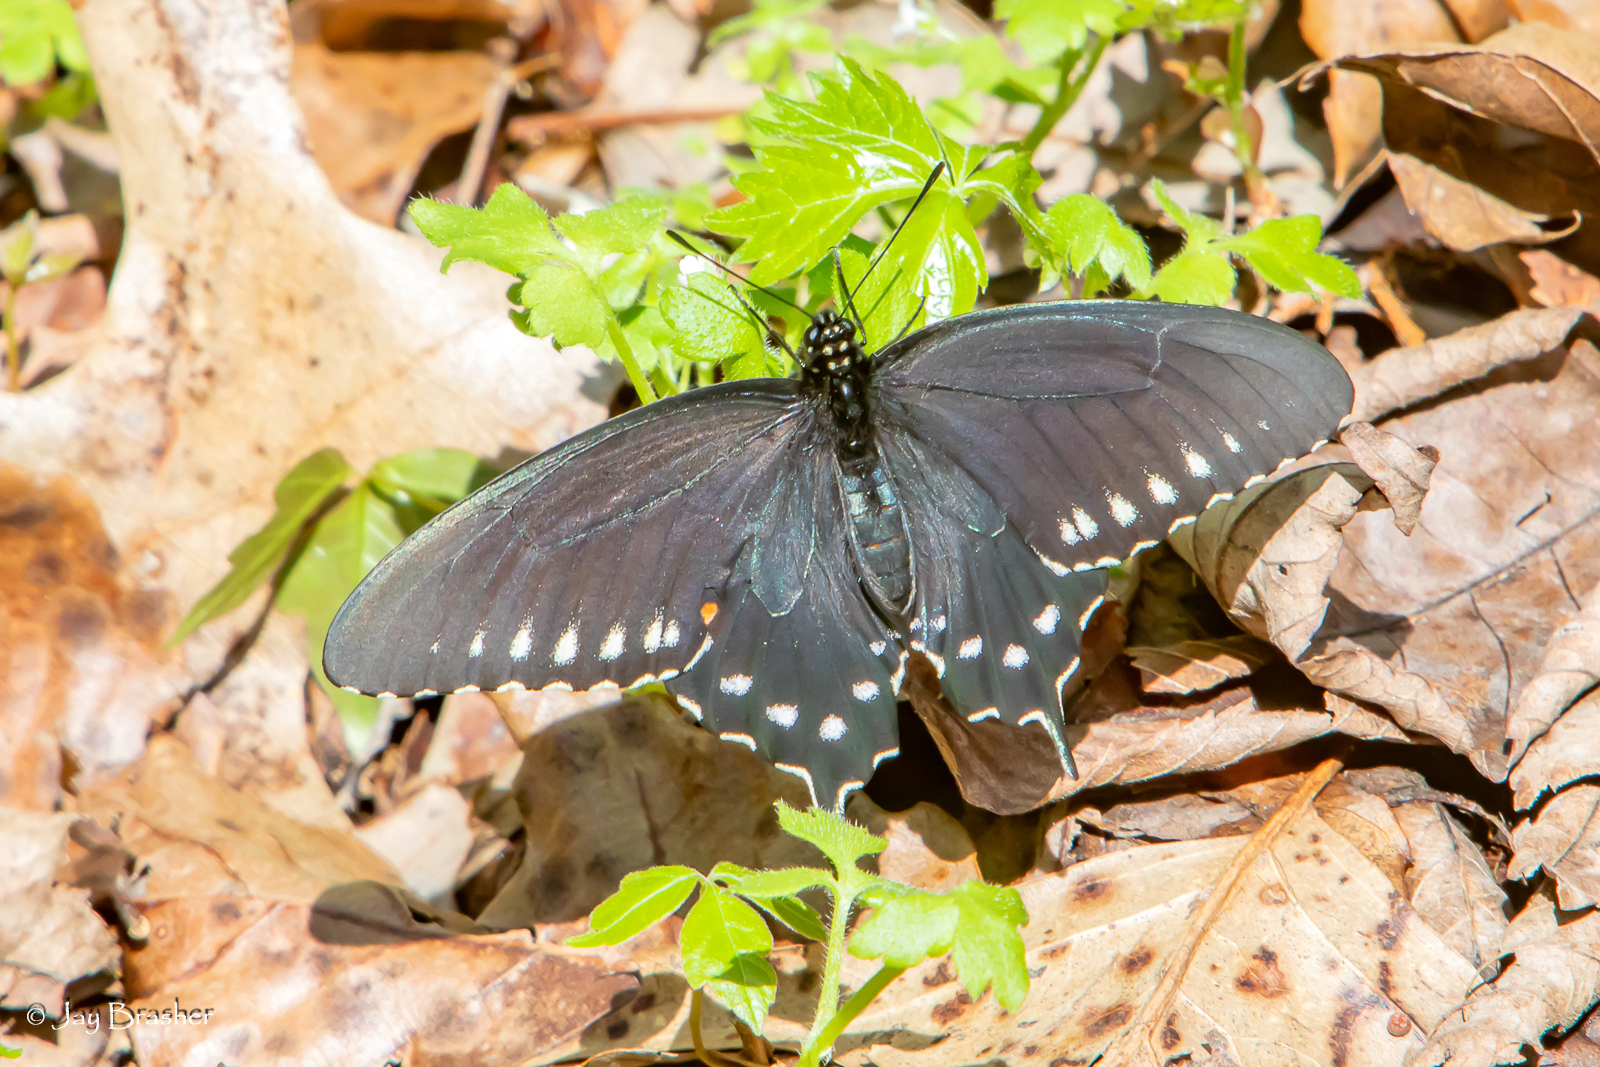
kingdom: Animalia
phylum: Arthropoda
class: Insecta
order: Lepidoptera
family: Papilionidae
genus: Battus
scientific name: Battus philenor
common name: Pipevine swallowtail
